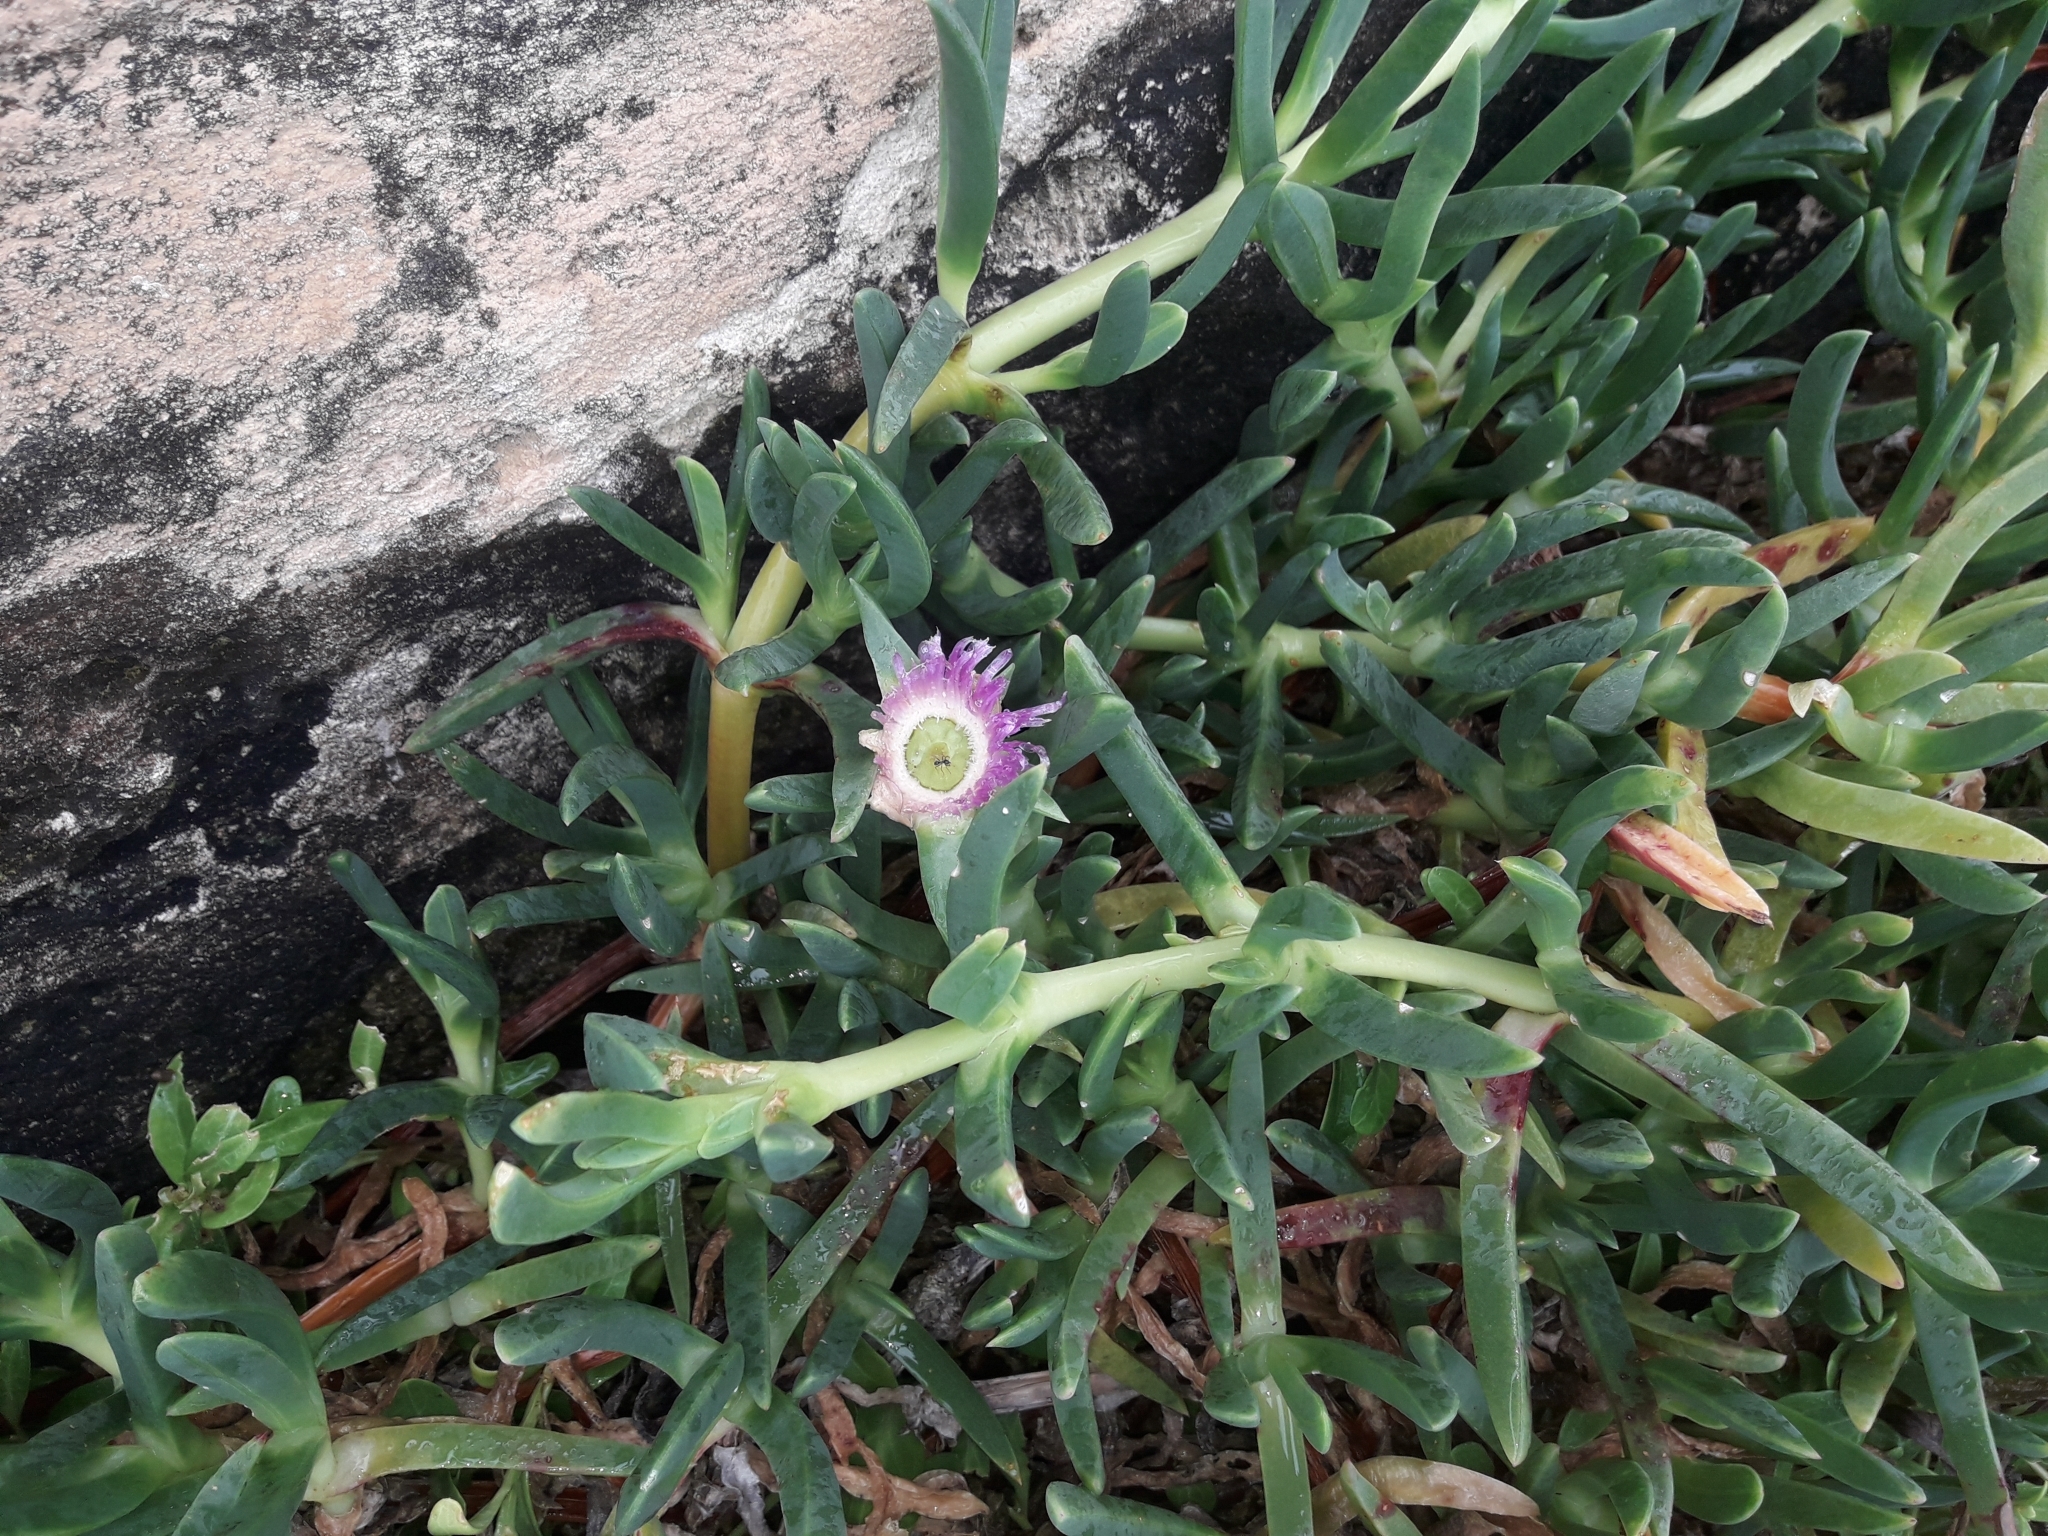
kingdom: Plantae
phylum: Tracheophyta
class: Magnoliopsida
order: Caryophyllales
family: Aizoaceae
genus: Carpobrotus
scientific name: Carpobrotus glaucescens
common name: Angular sea-fig
